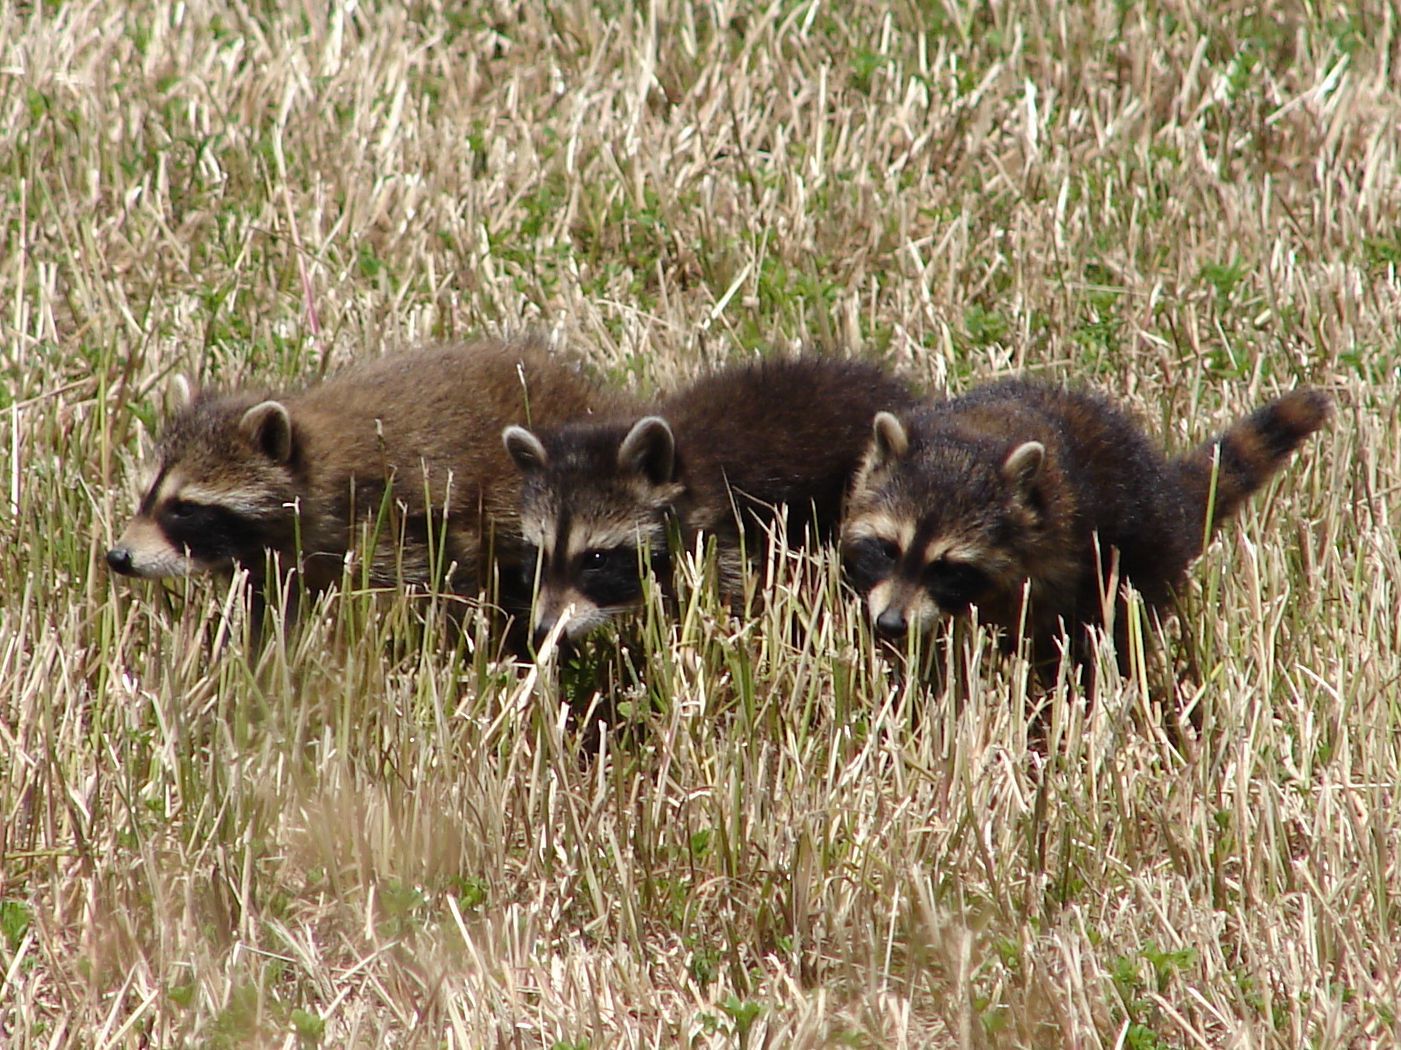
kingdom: Animalia
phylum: Chordata
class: Mammalia
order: Carnivora
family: Procyonidae
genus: Procyon
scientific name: Procyon lotor
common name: Raccoon
